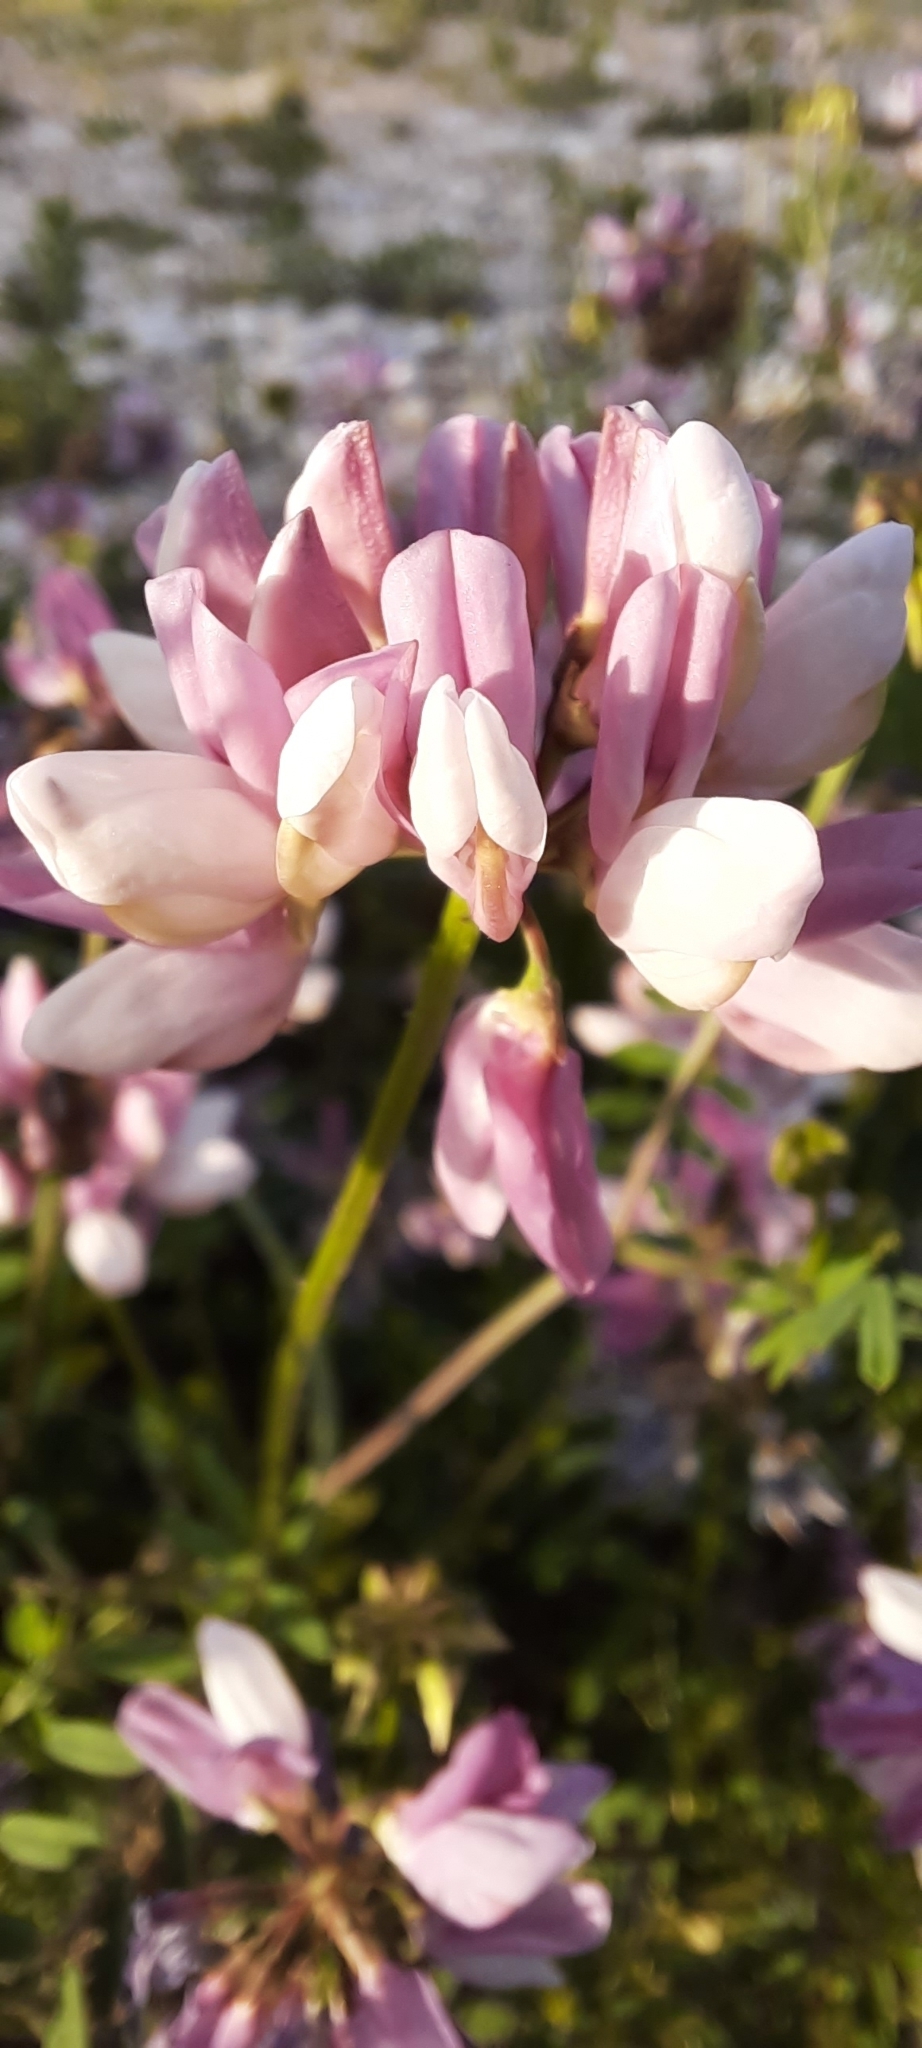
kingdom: Plantae
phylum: Tracheophyta
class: Magnoliopsida
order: Fabales
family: Fabaceae
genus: Coronilla
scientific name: Coronilla varia
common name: Crownvetch
